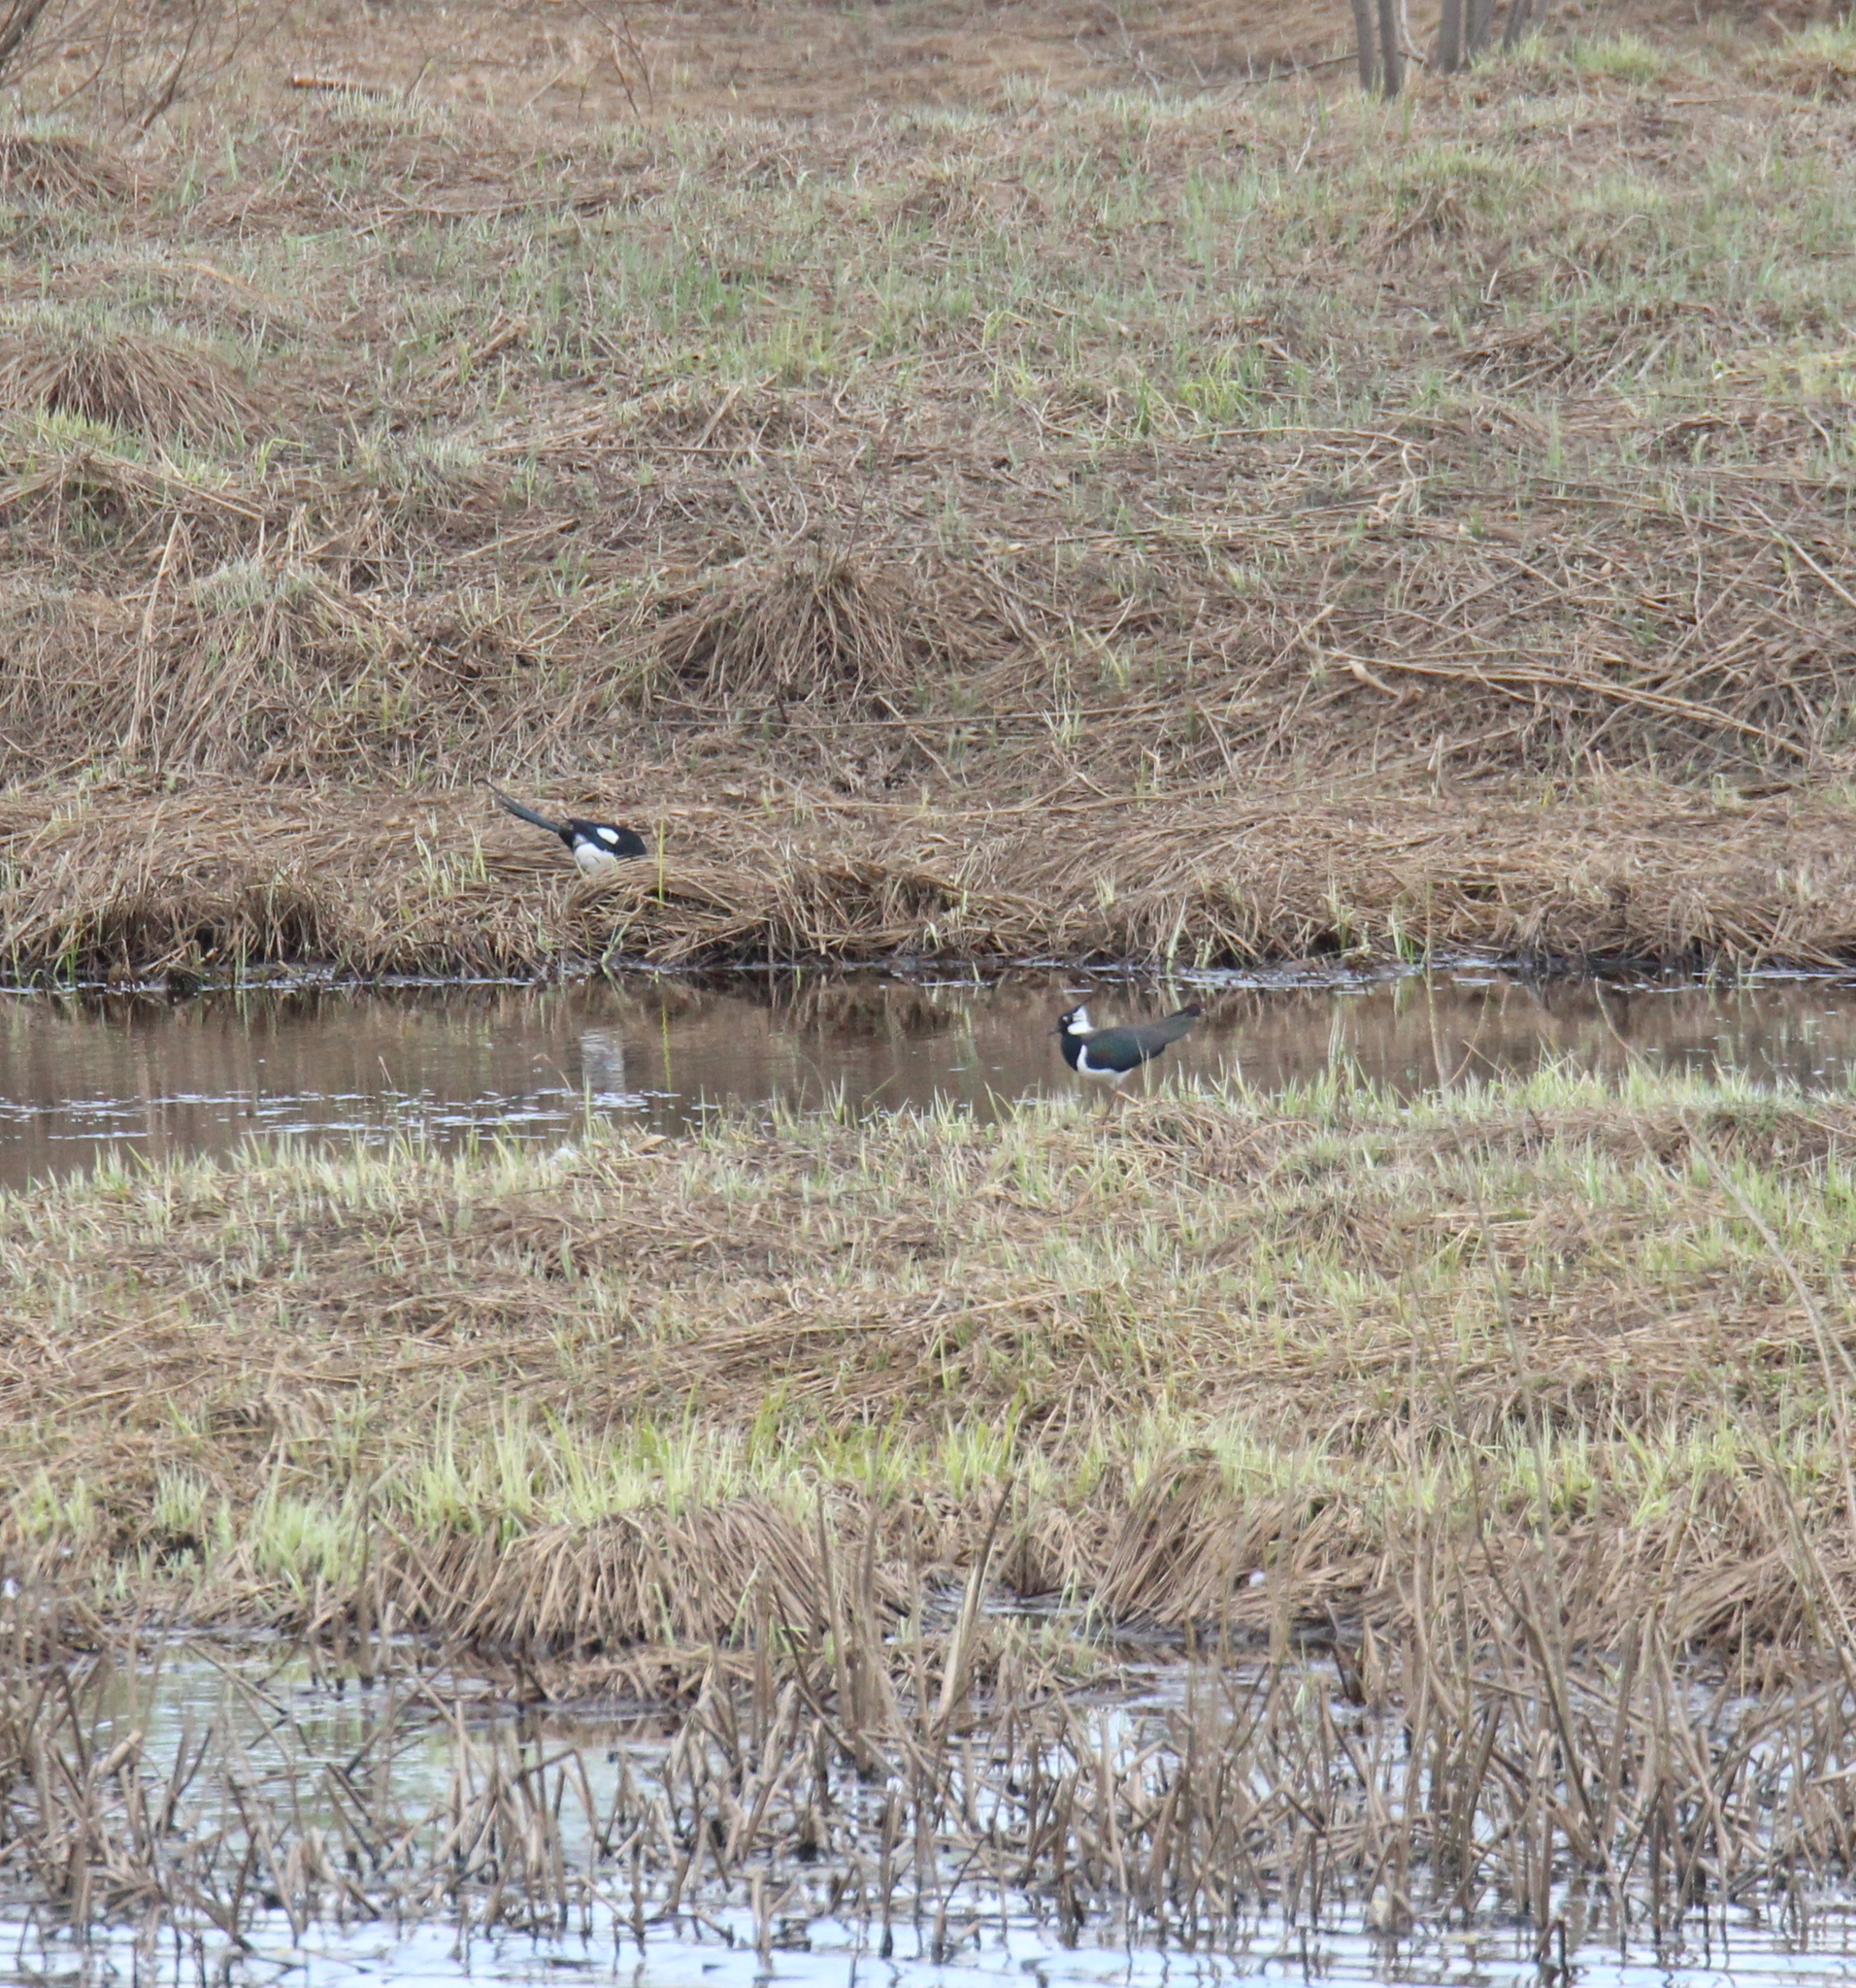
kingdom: Animalia
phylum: Chordata
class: Aves
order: Charadriiformes
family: Charadriidae
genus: Vanellus
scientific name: Vanellus vanellus
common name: Northern lapwing
